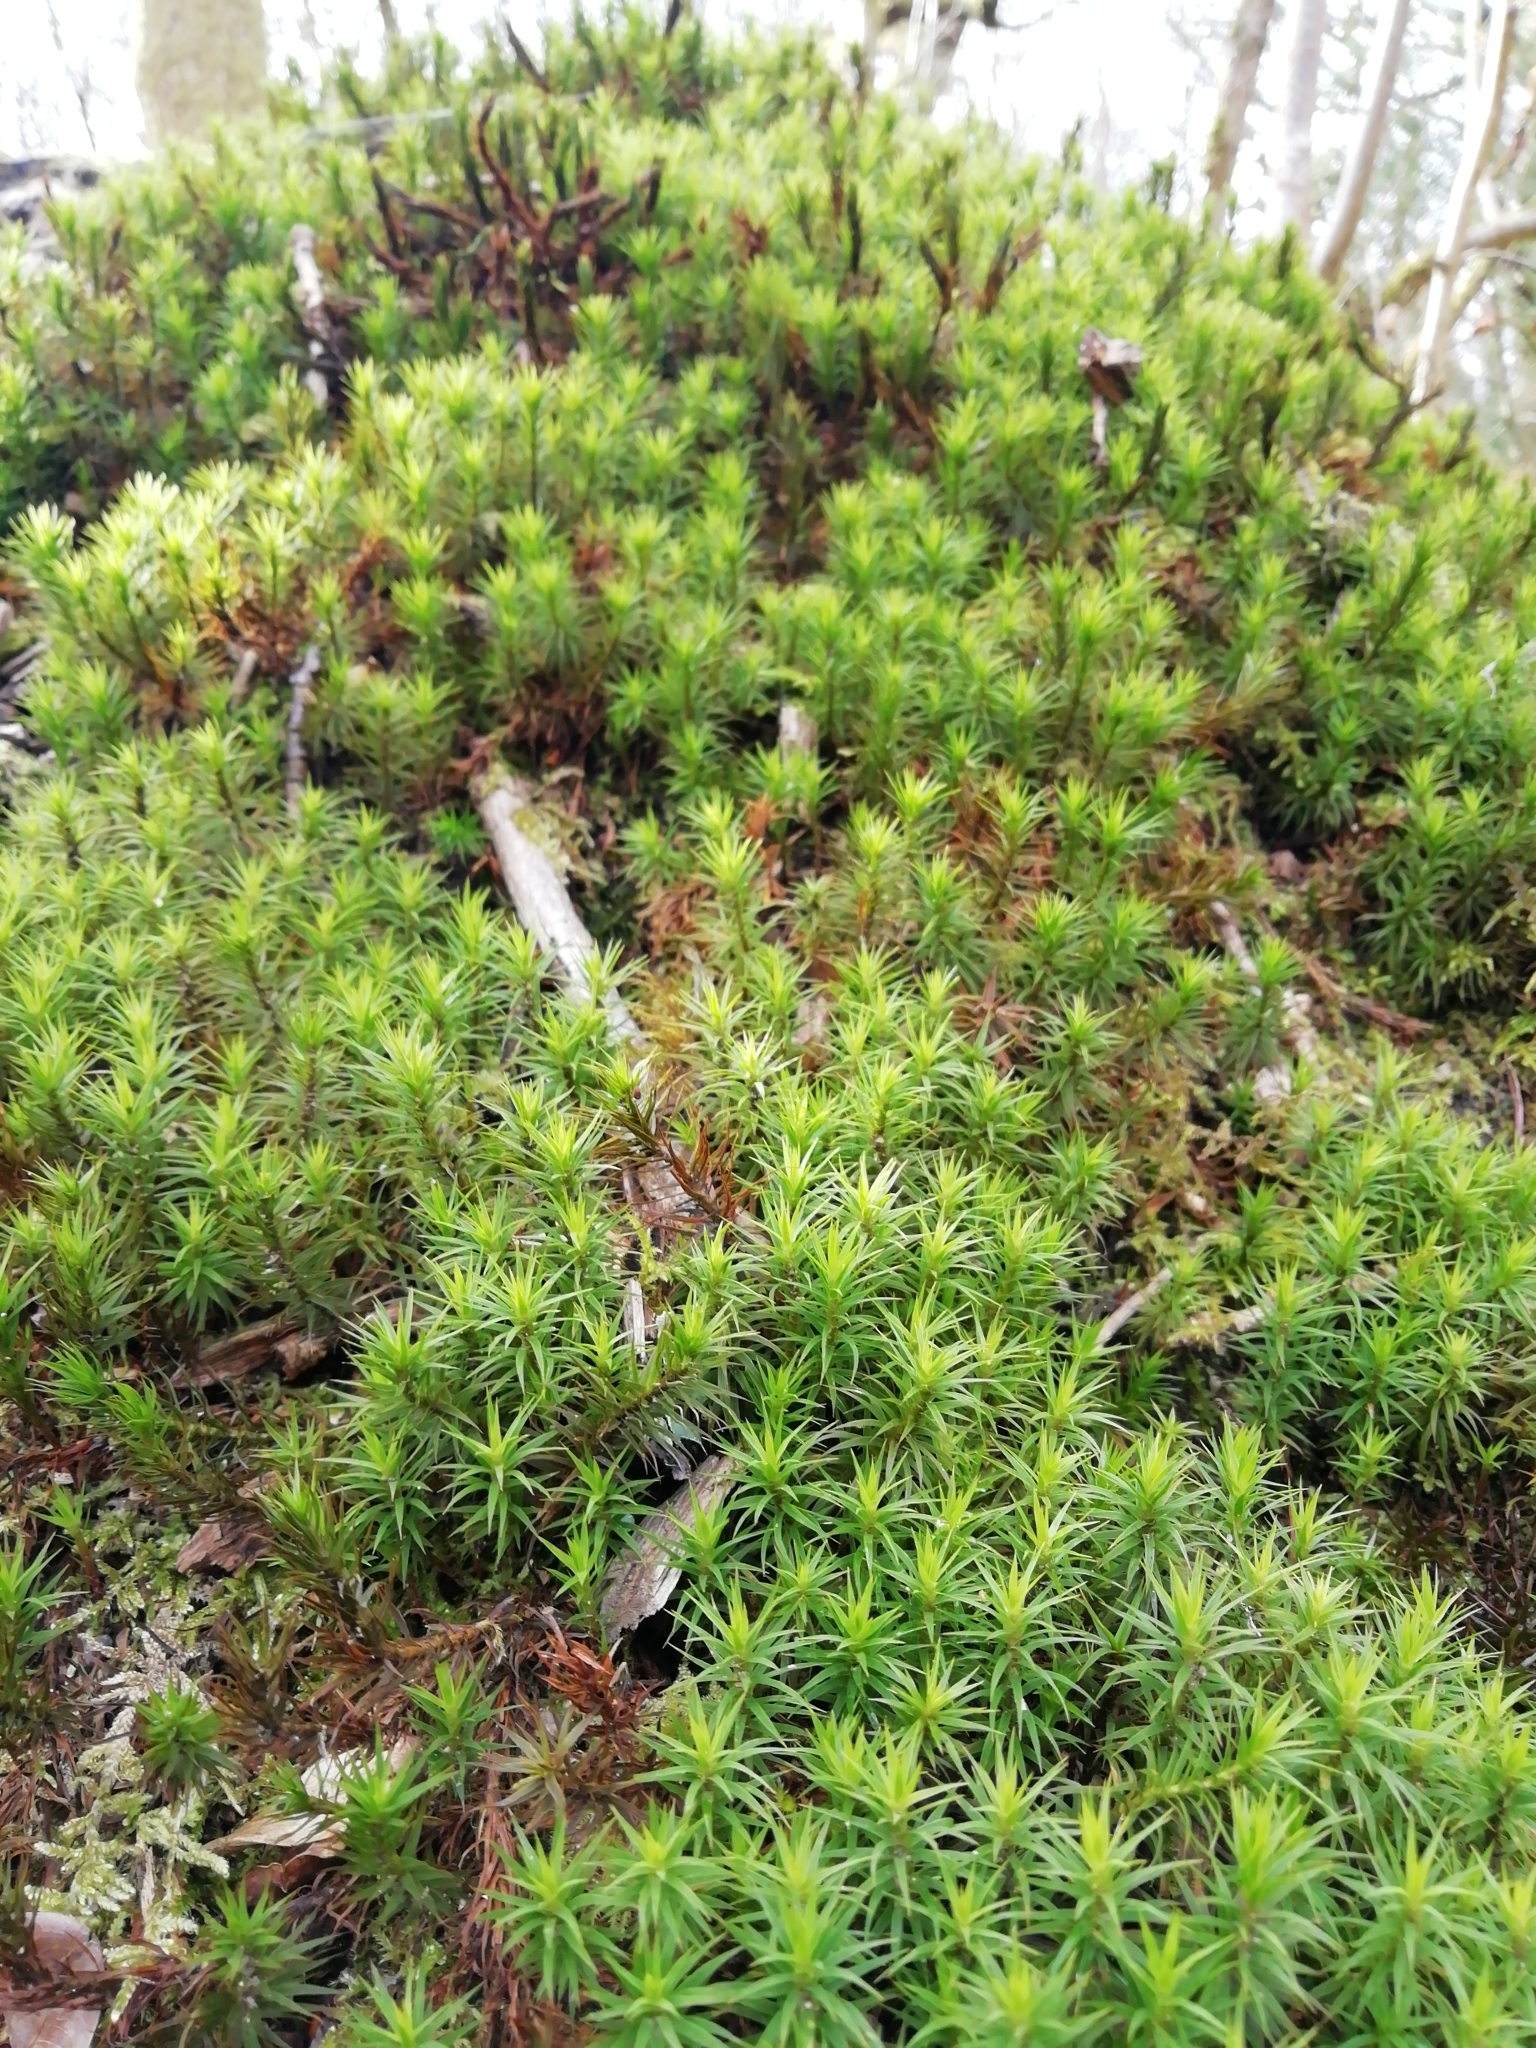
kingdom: Plantae
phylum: Bryophyta
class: Polytrichopsida
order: Polytrichales
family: Polytrichaceae
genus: Polytrichum
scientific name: Polytrichum formosum
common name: Bank haircap moss
